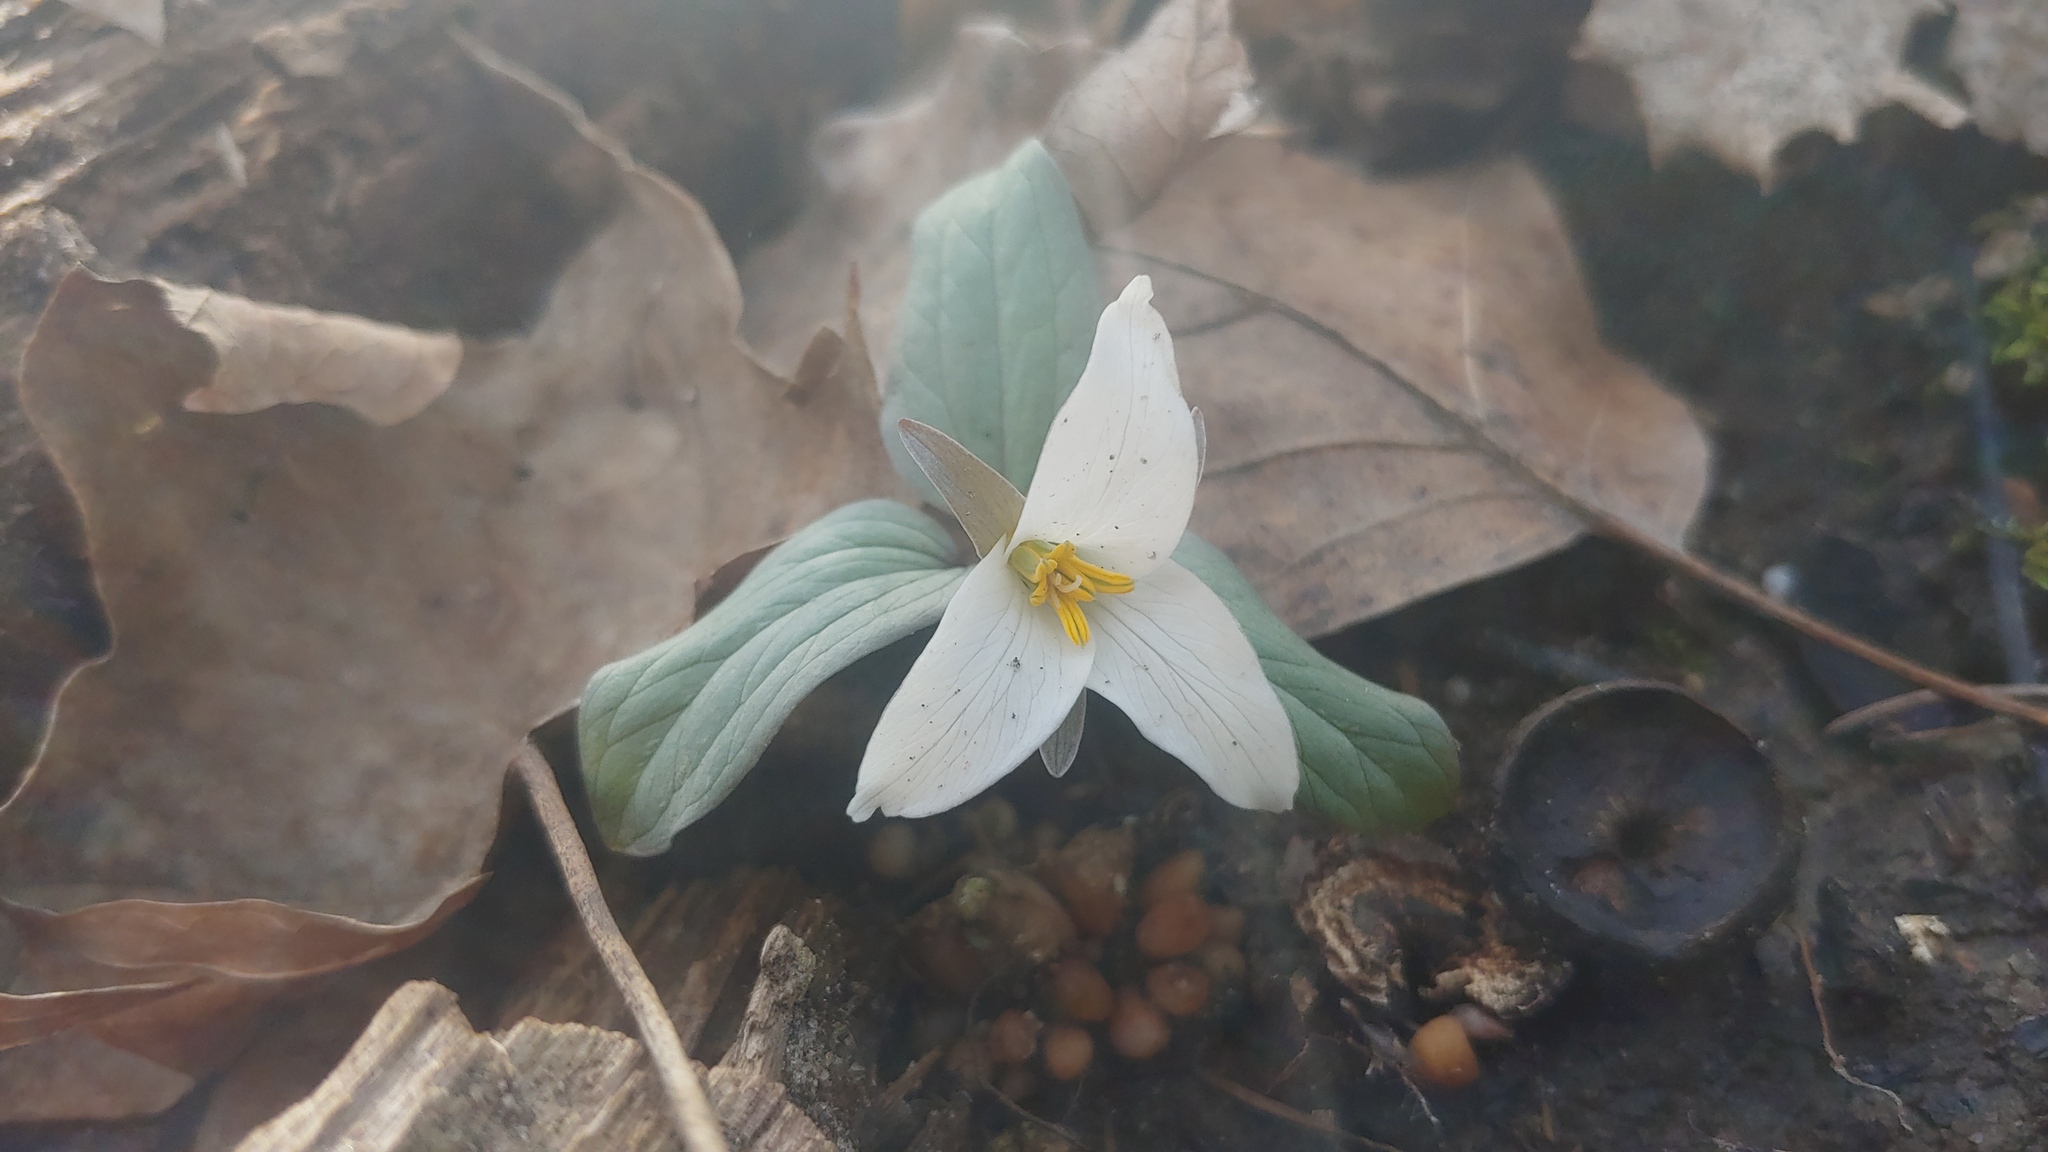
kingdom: Plantae
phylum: Tracheophyta
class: Liliopsida
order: Liliales
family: Melanthiaceae
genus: Trillium
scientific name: Trillium nivale
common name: Dwarf white trillium
